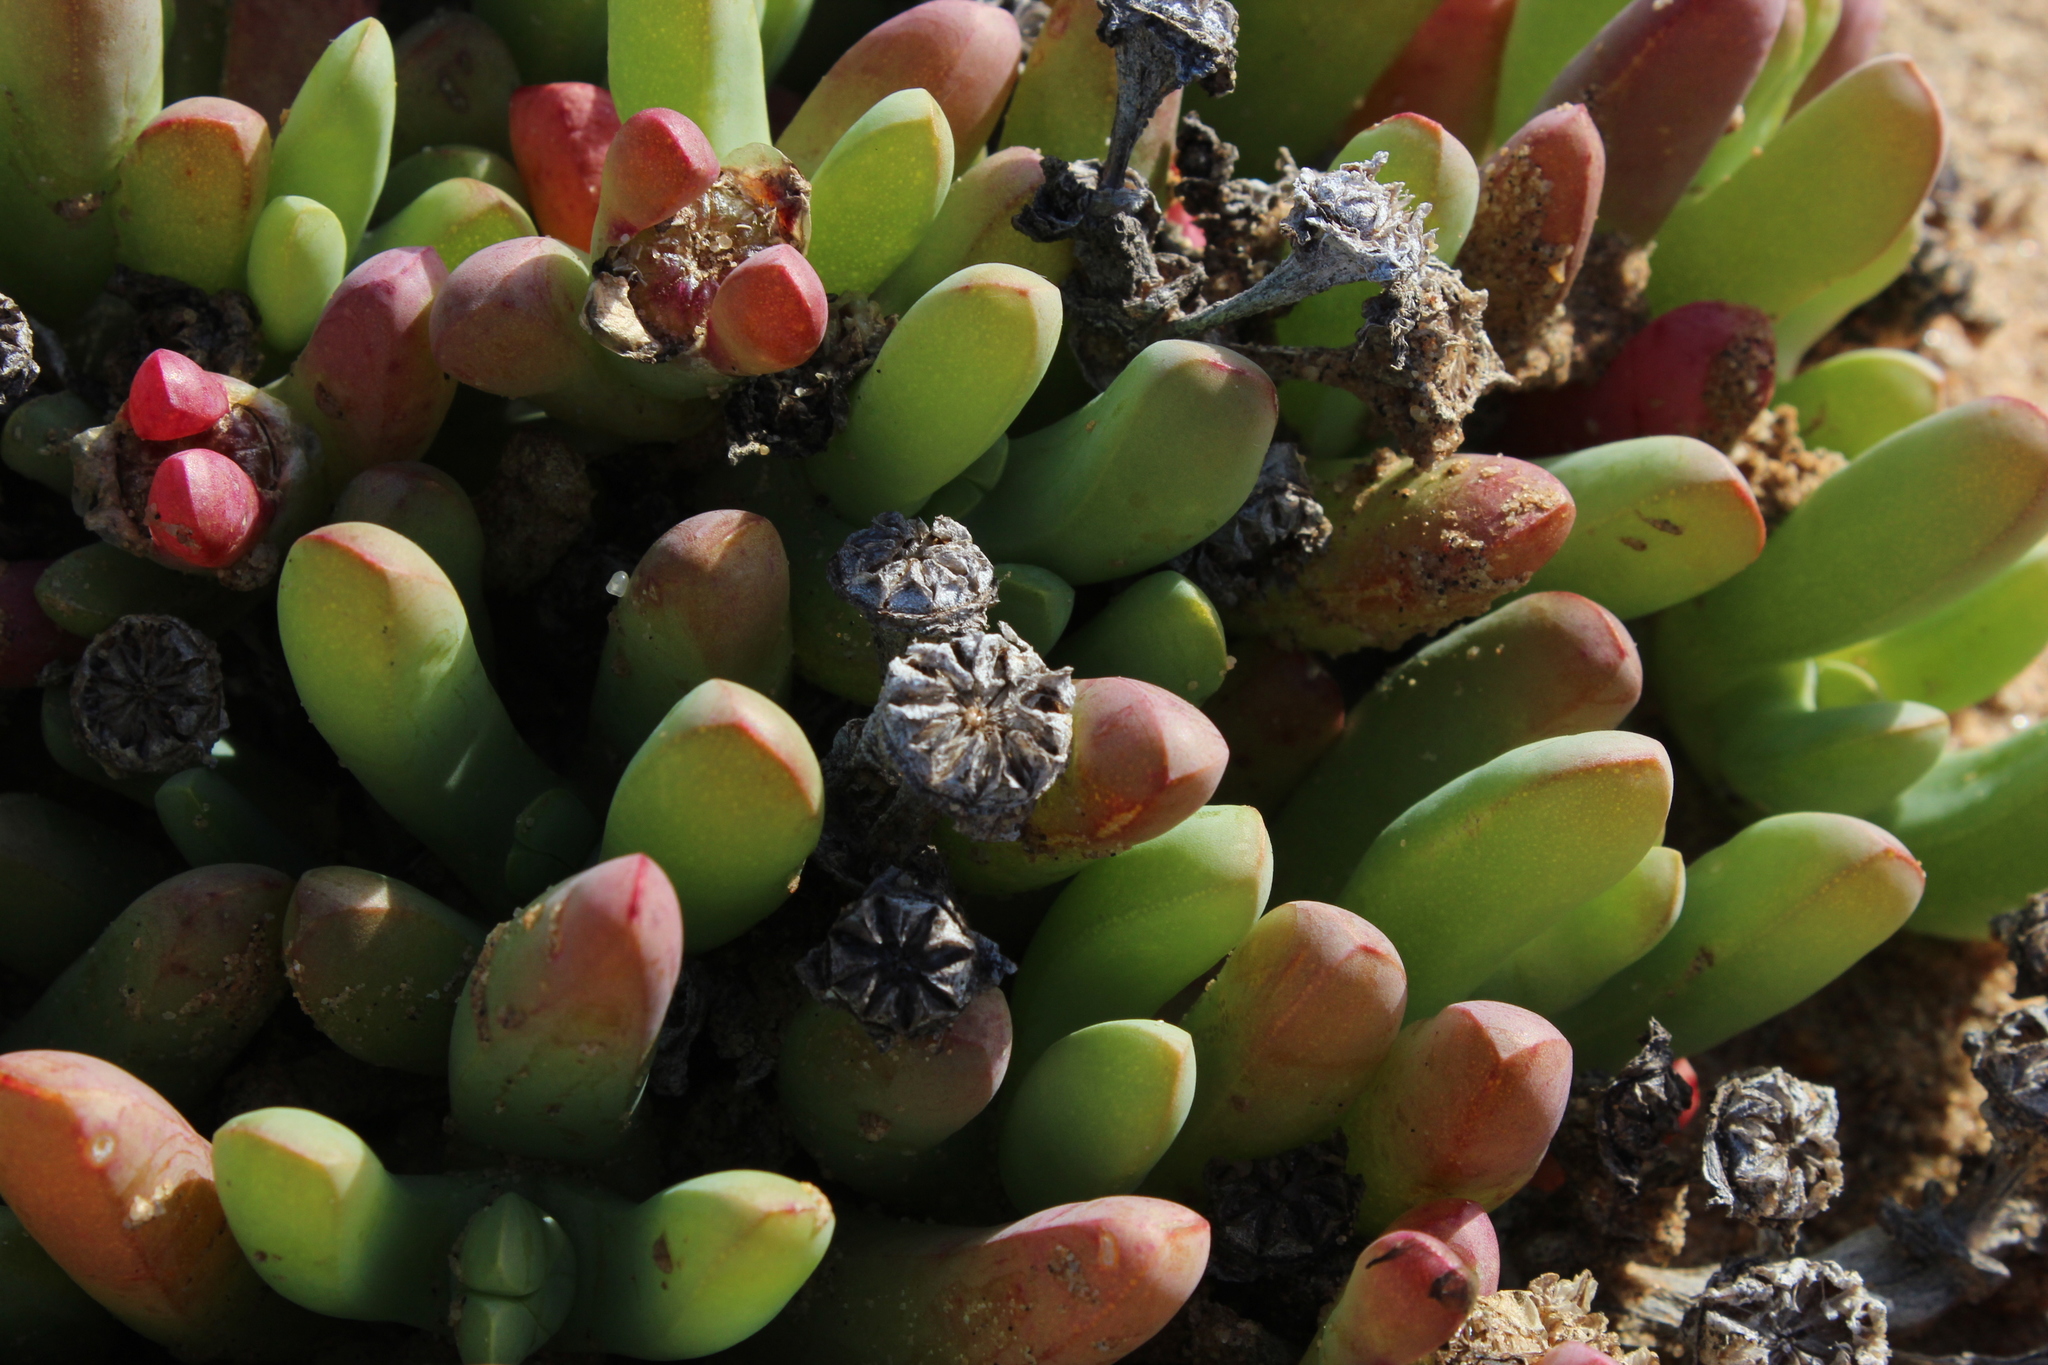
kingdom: Plantae
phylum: Tracheophyta
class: Magnoliopsida
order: Caryophyllales
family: Aizoaceae
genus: Malephora
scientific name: Malephora framesii
